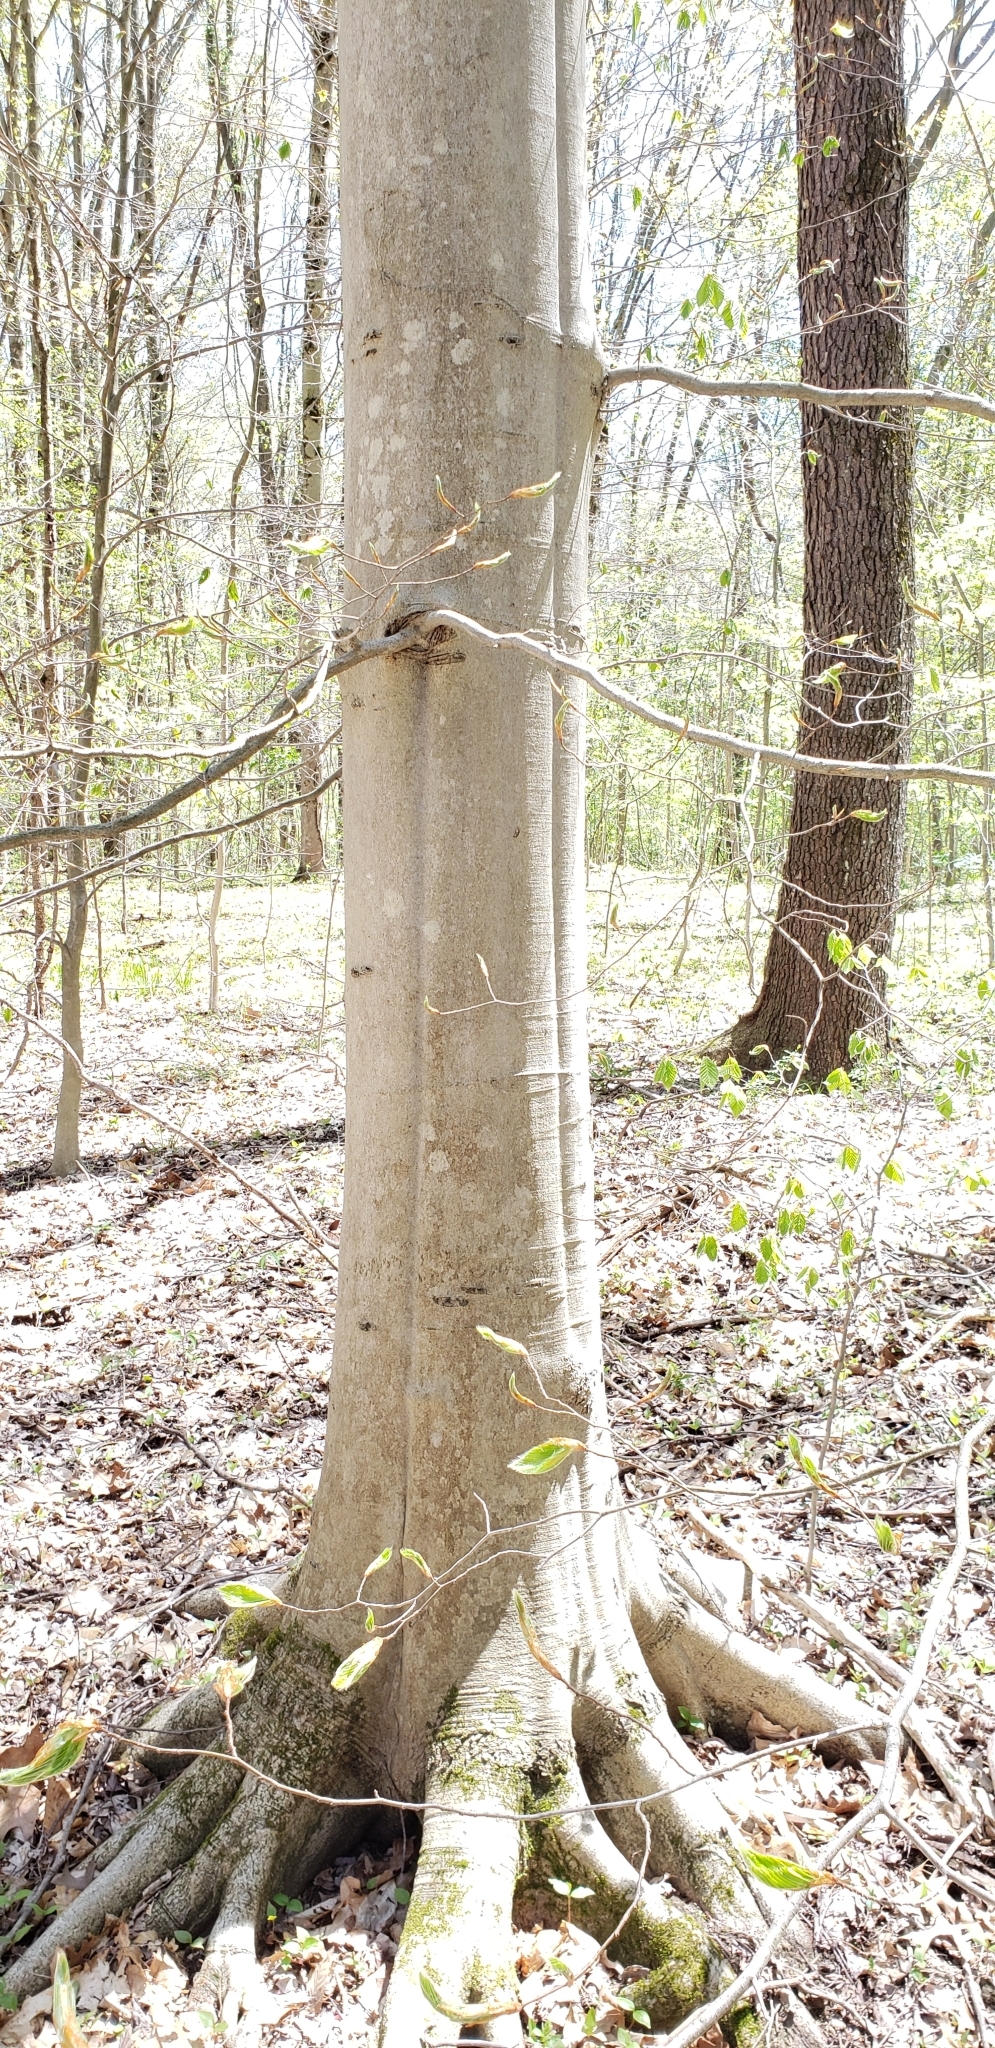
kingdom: Plantae
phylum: Tracheophyta
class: Magnoliopsida
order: Fagales
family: Fagaceae
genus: Fagus
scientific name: Fagus grandifolia
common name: American beech
